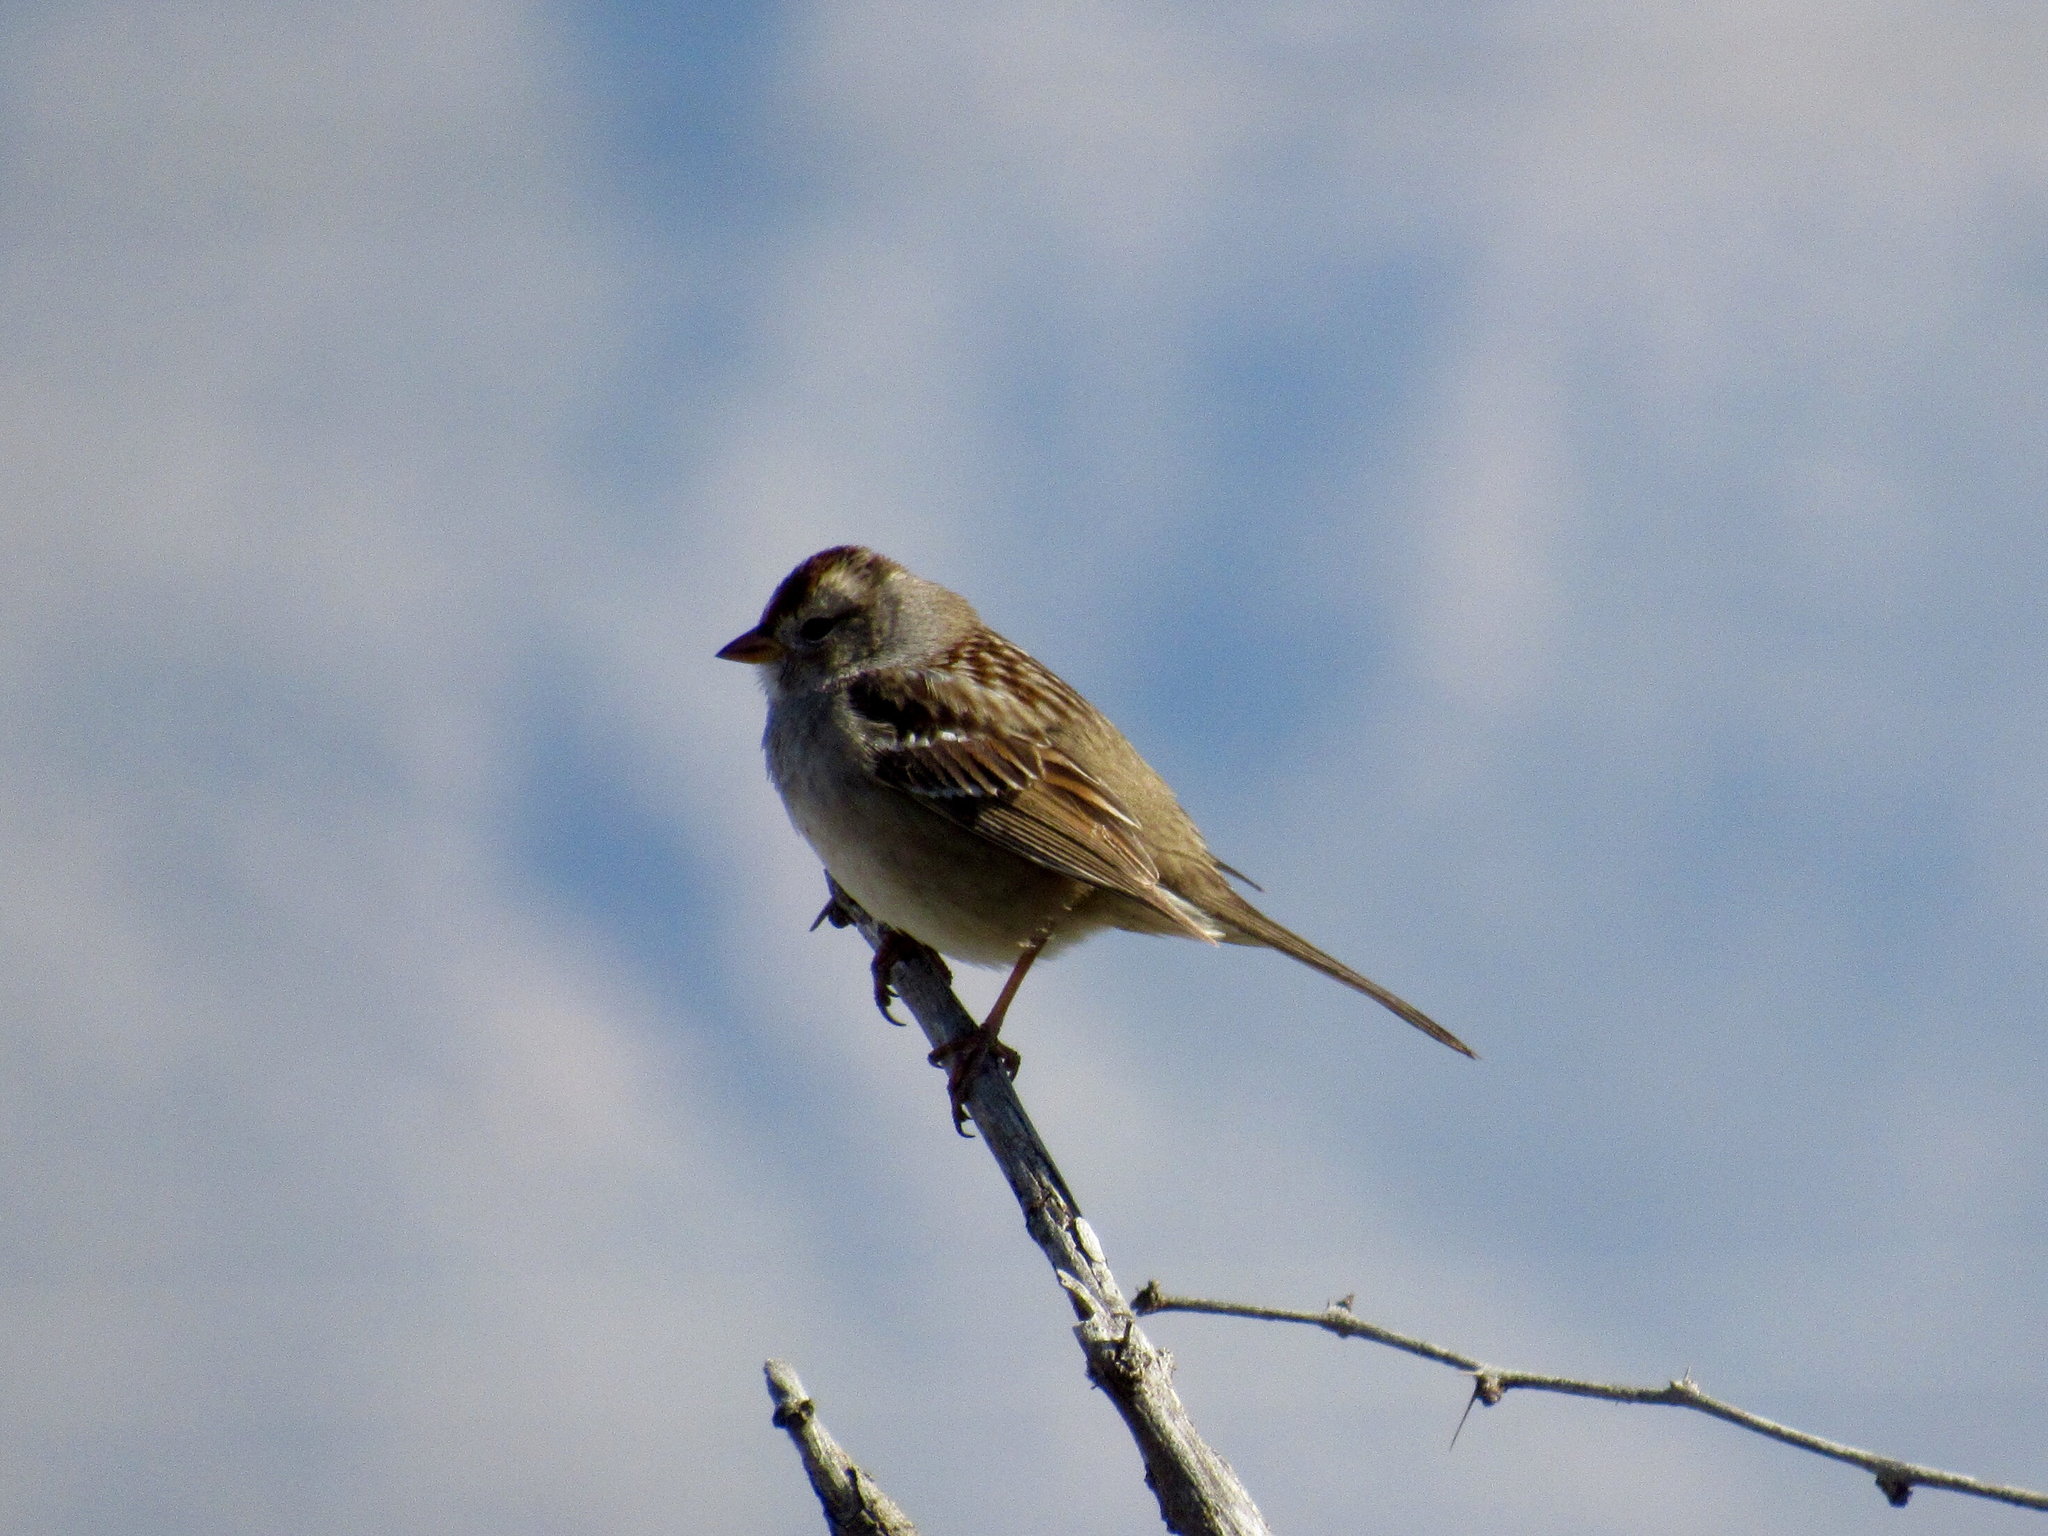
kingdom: Animalia
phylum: Chordata
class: Aves
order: Passeriformes
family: Passerellidae
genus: Zonotrichia
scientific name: Zonotrichia leucophrys
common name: White-crowned sparrow
